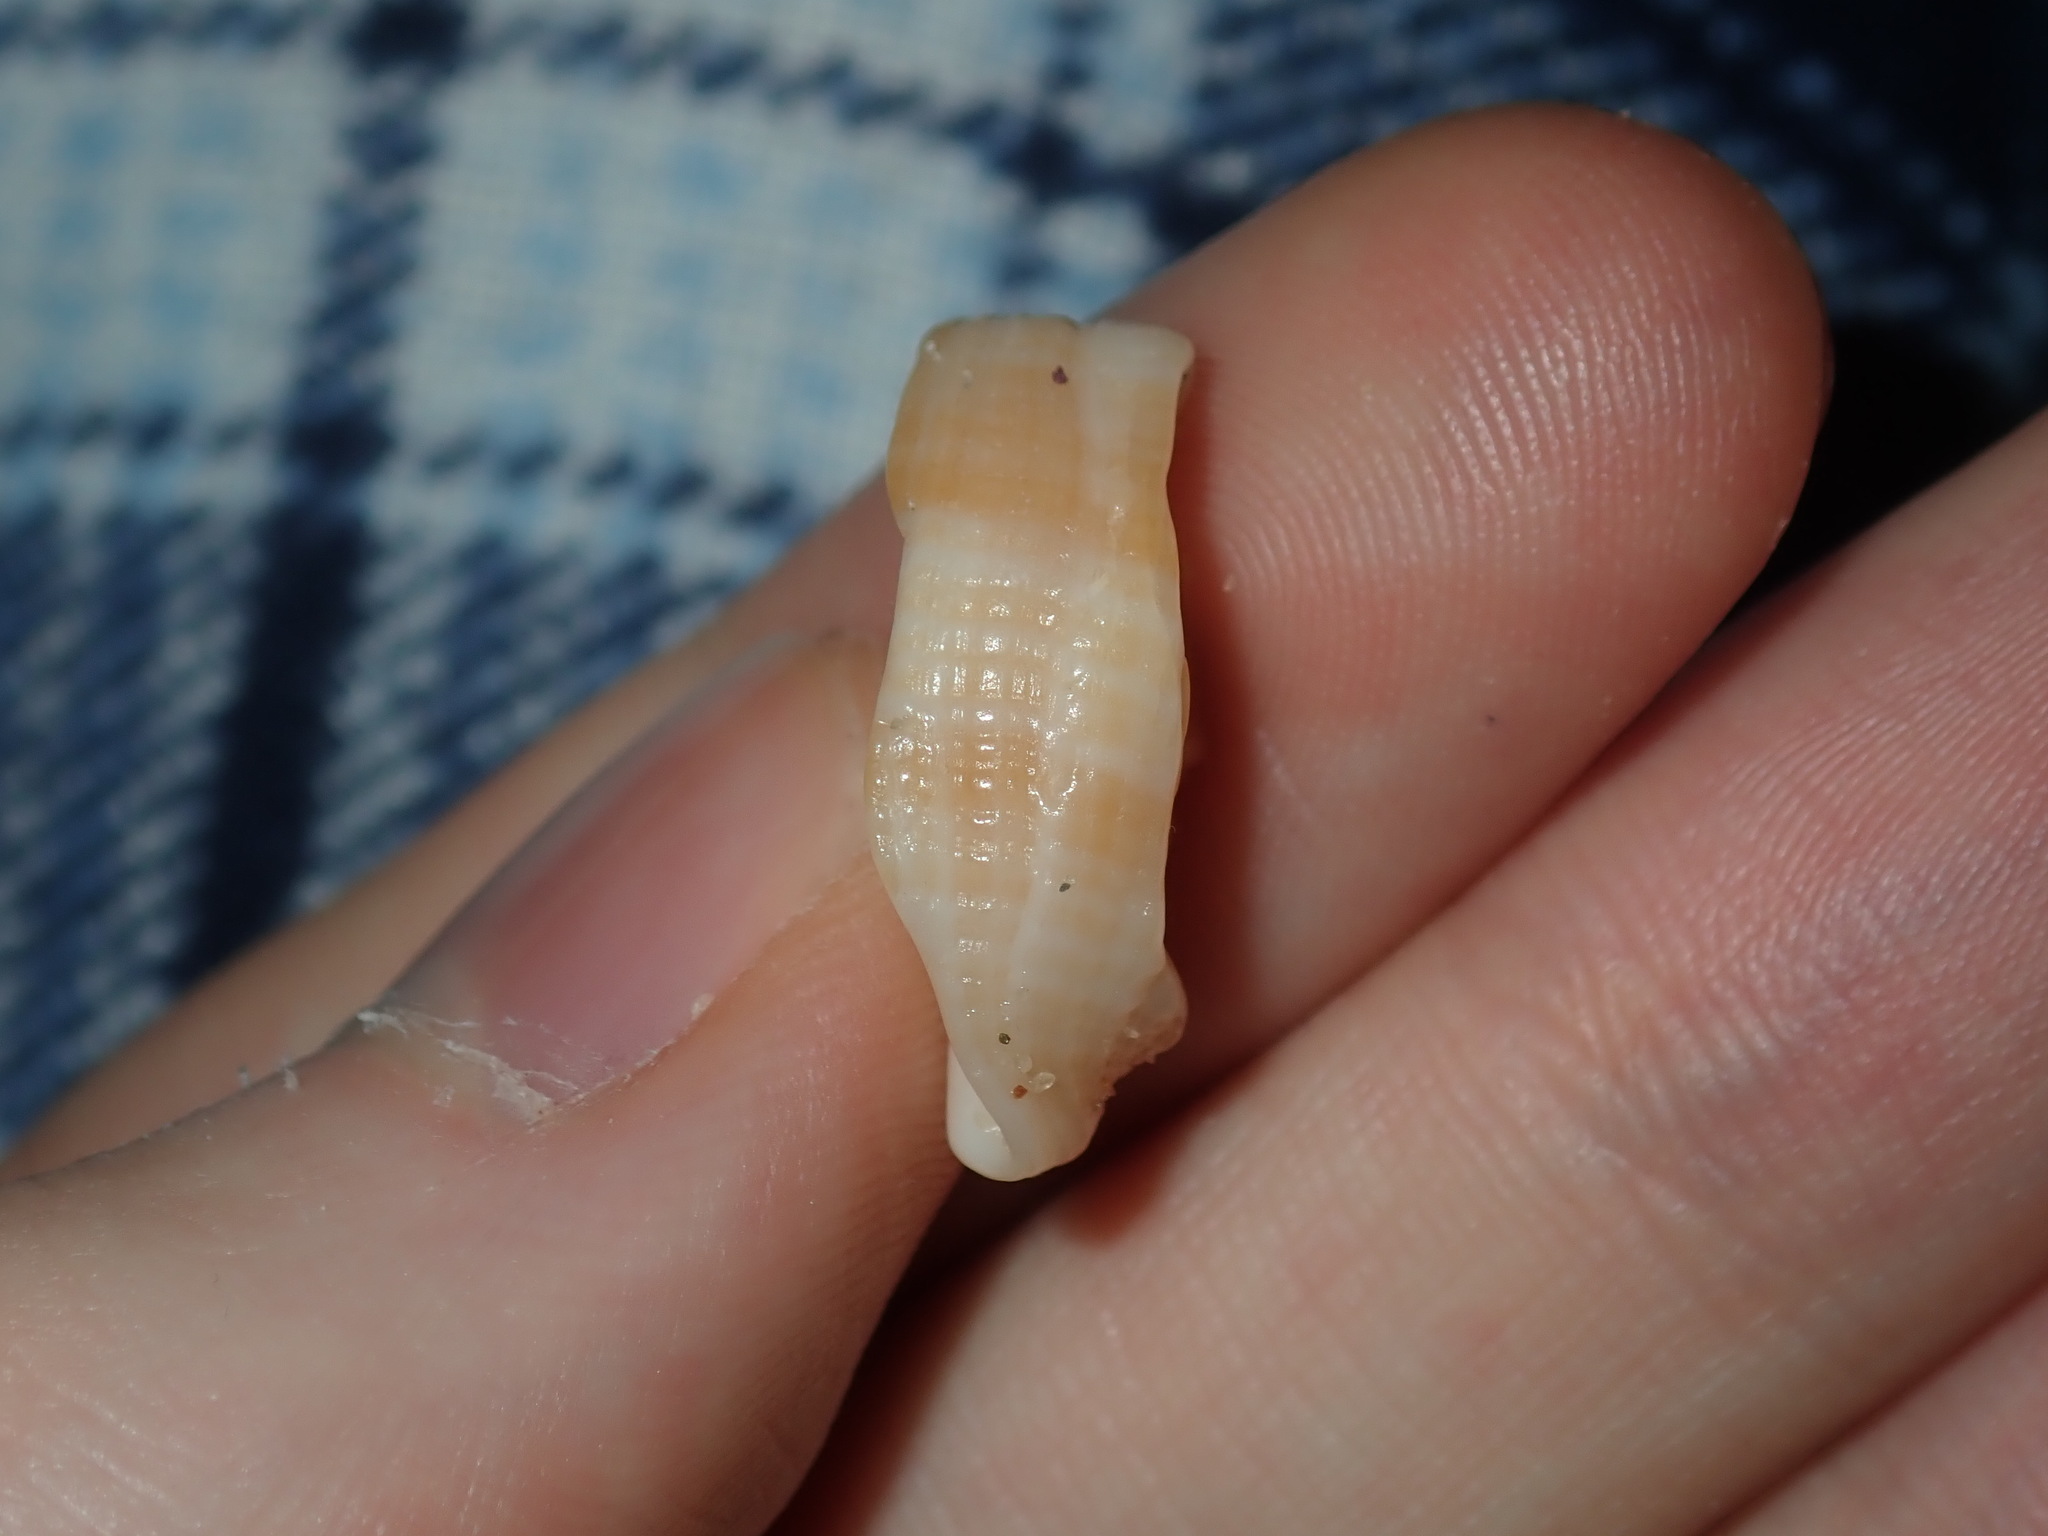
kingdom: Animalia
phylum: Mollusca
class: Gastropoda
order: Neogastropoda
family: Cancellariidae
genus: Merica
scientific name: Merica undulata
